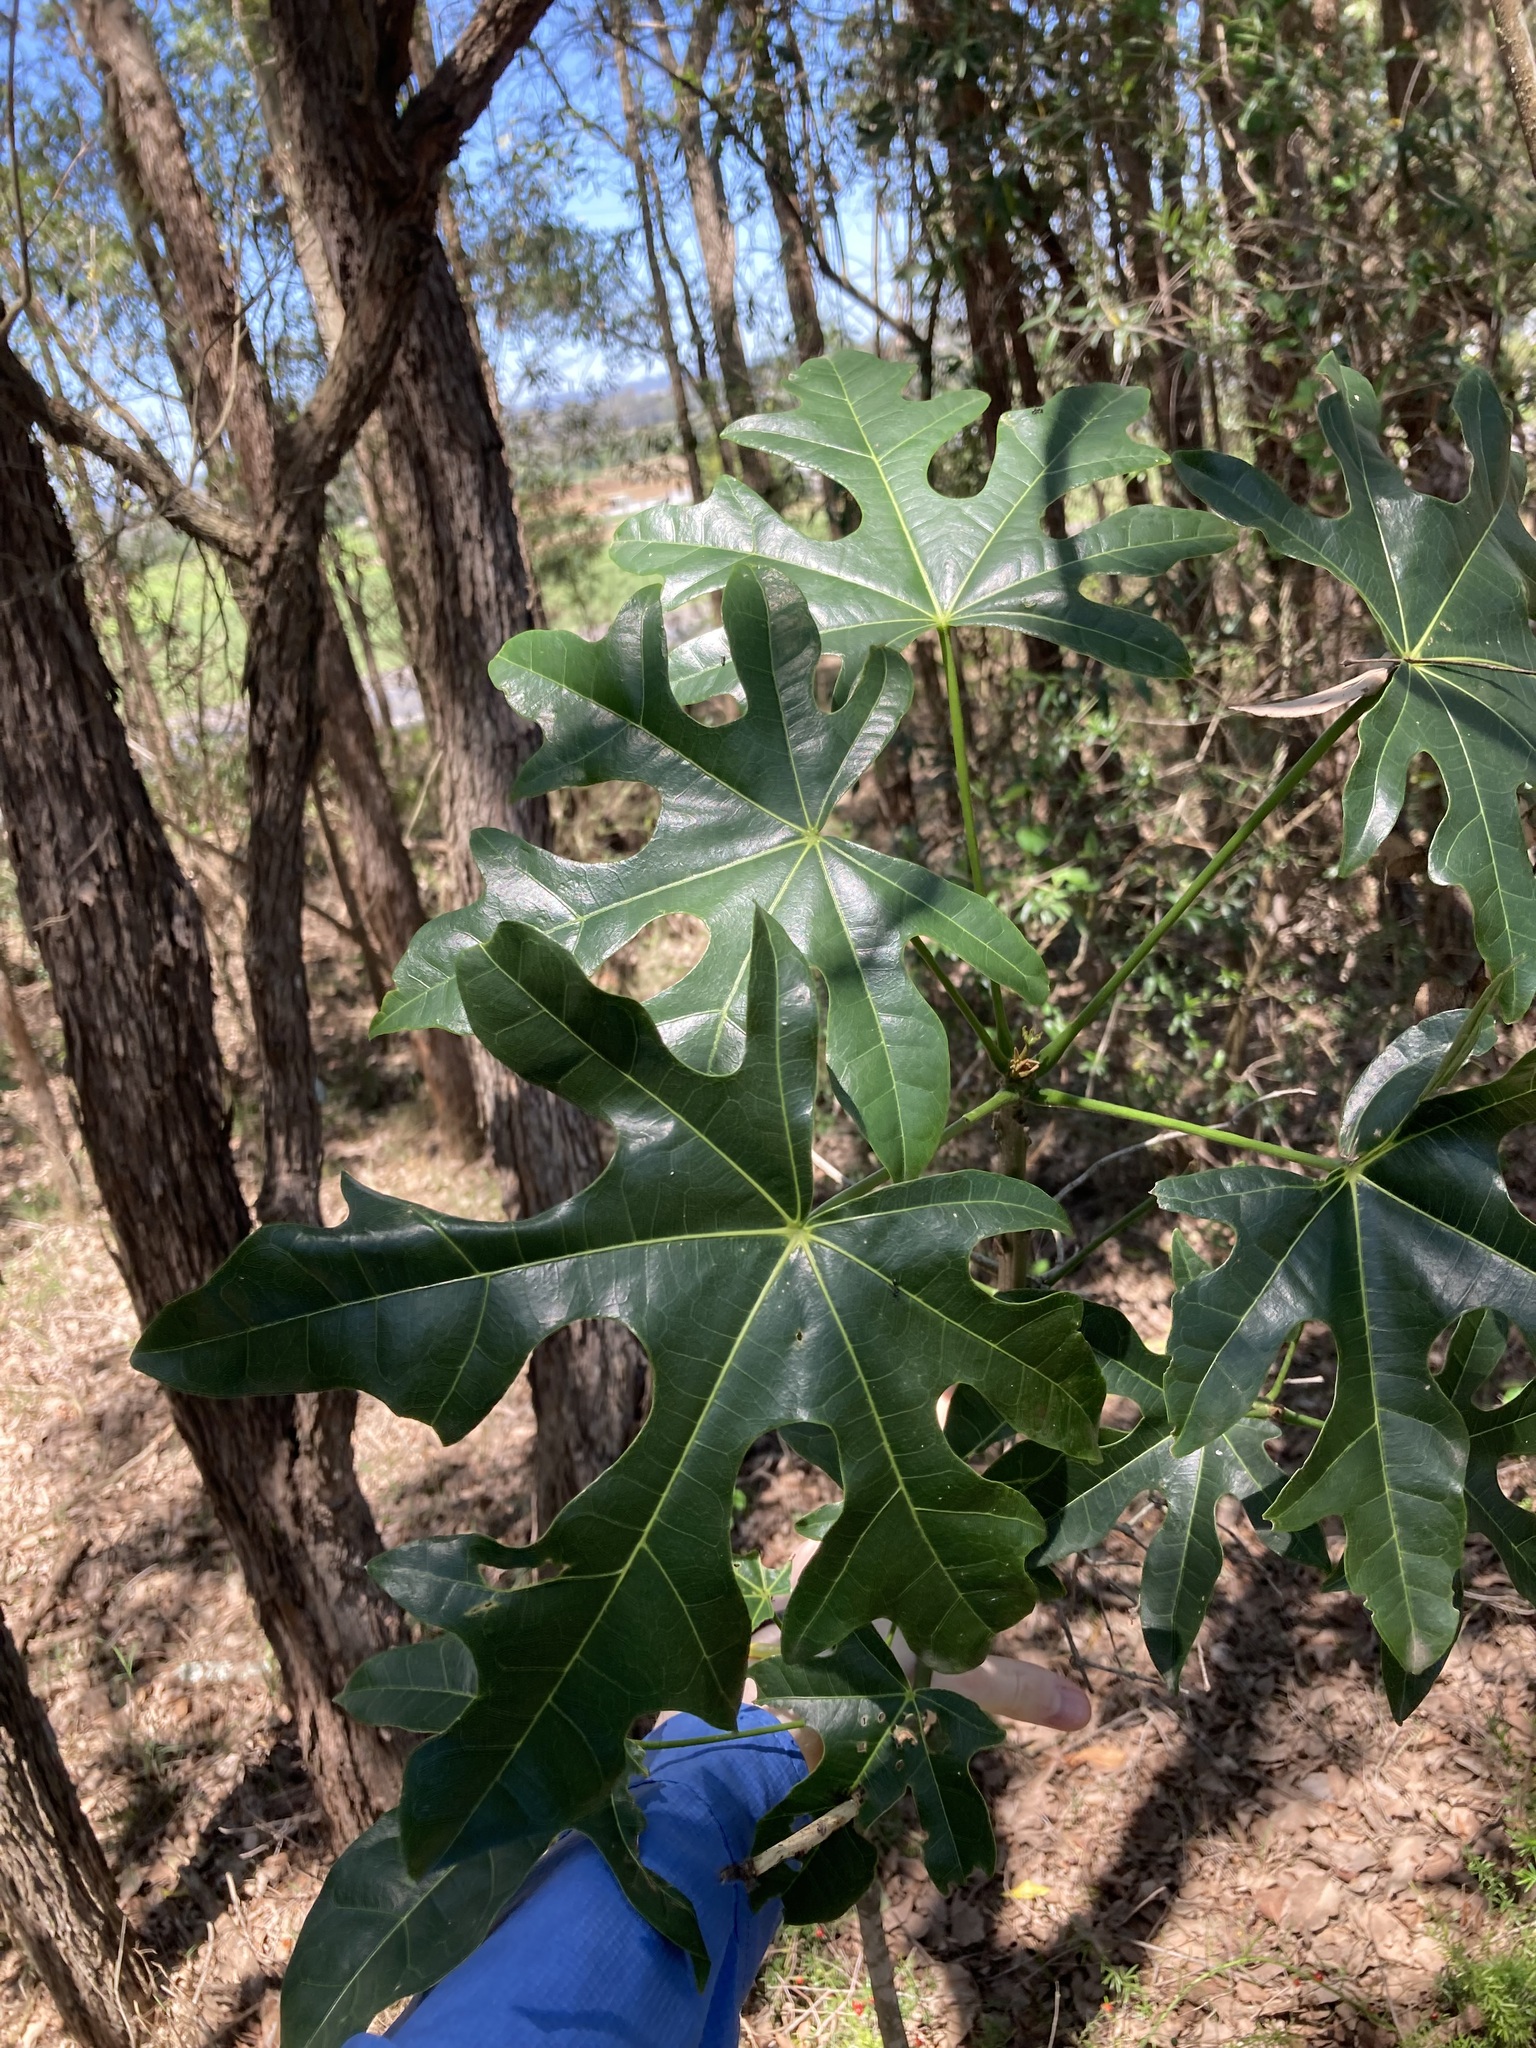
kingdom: Plantae
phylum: Tracheophyta
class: Magnoliopsida
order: Malvales
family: Malvaceae
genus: Brachychiton
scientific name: Brachychiton acerifolius
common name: Illawarra flame tree
